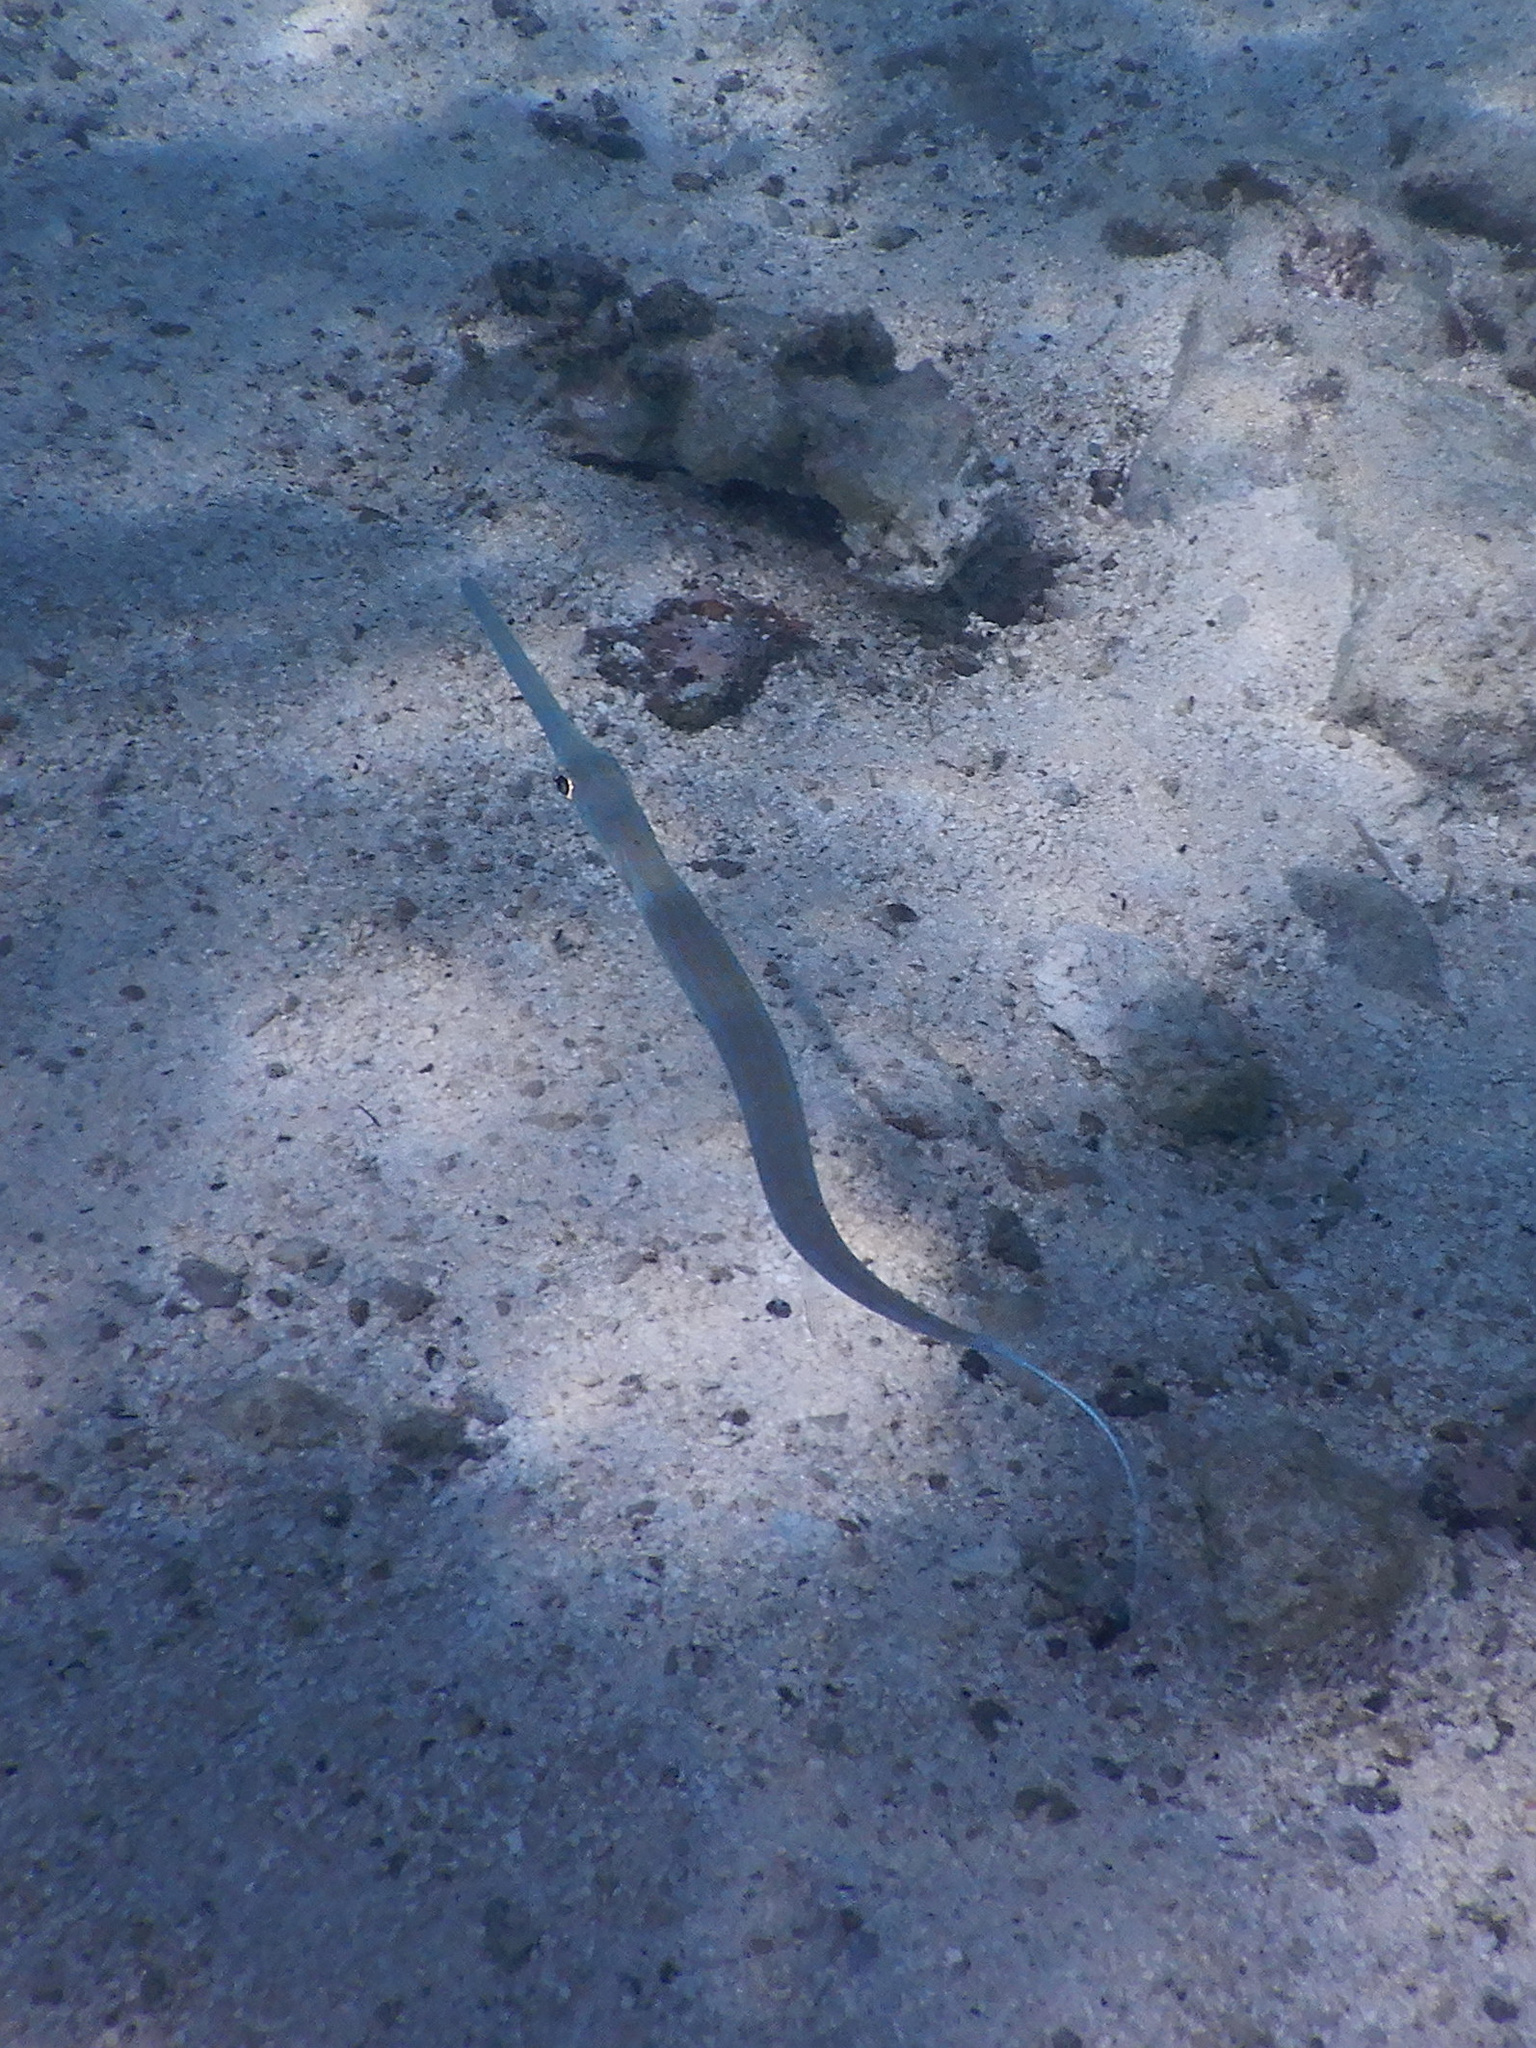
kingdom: Animalia
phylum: Chordata
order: Syngnathiformes
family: Fistulariidae
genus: Fistularia
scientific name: Fistularia commersonii
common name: Bluespotted cornetfish
